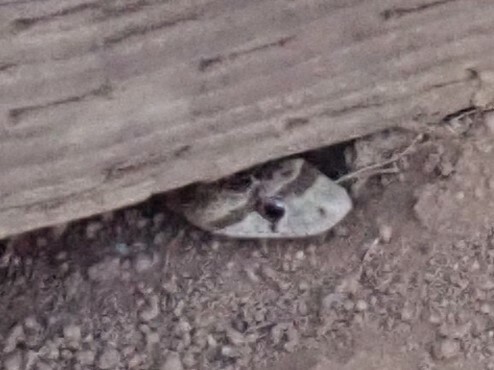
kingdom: Animalia
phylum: Chordata
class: Squamata
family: Colubridae
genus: Pituophis
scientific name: Pituophis catenifer
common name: Gopher snake
